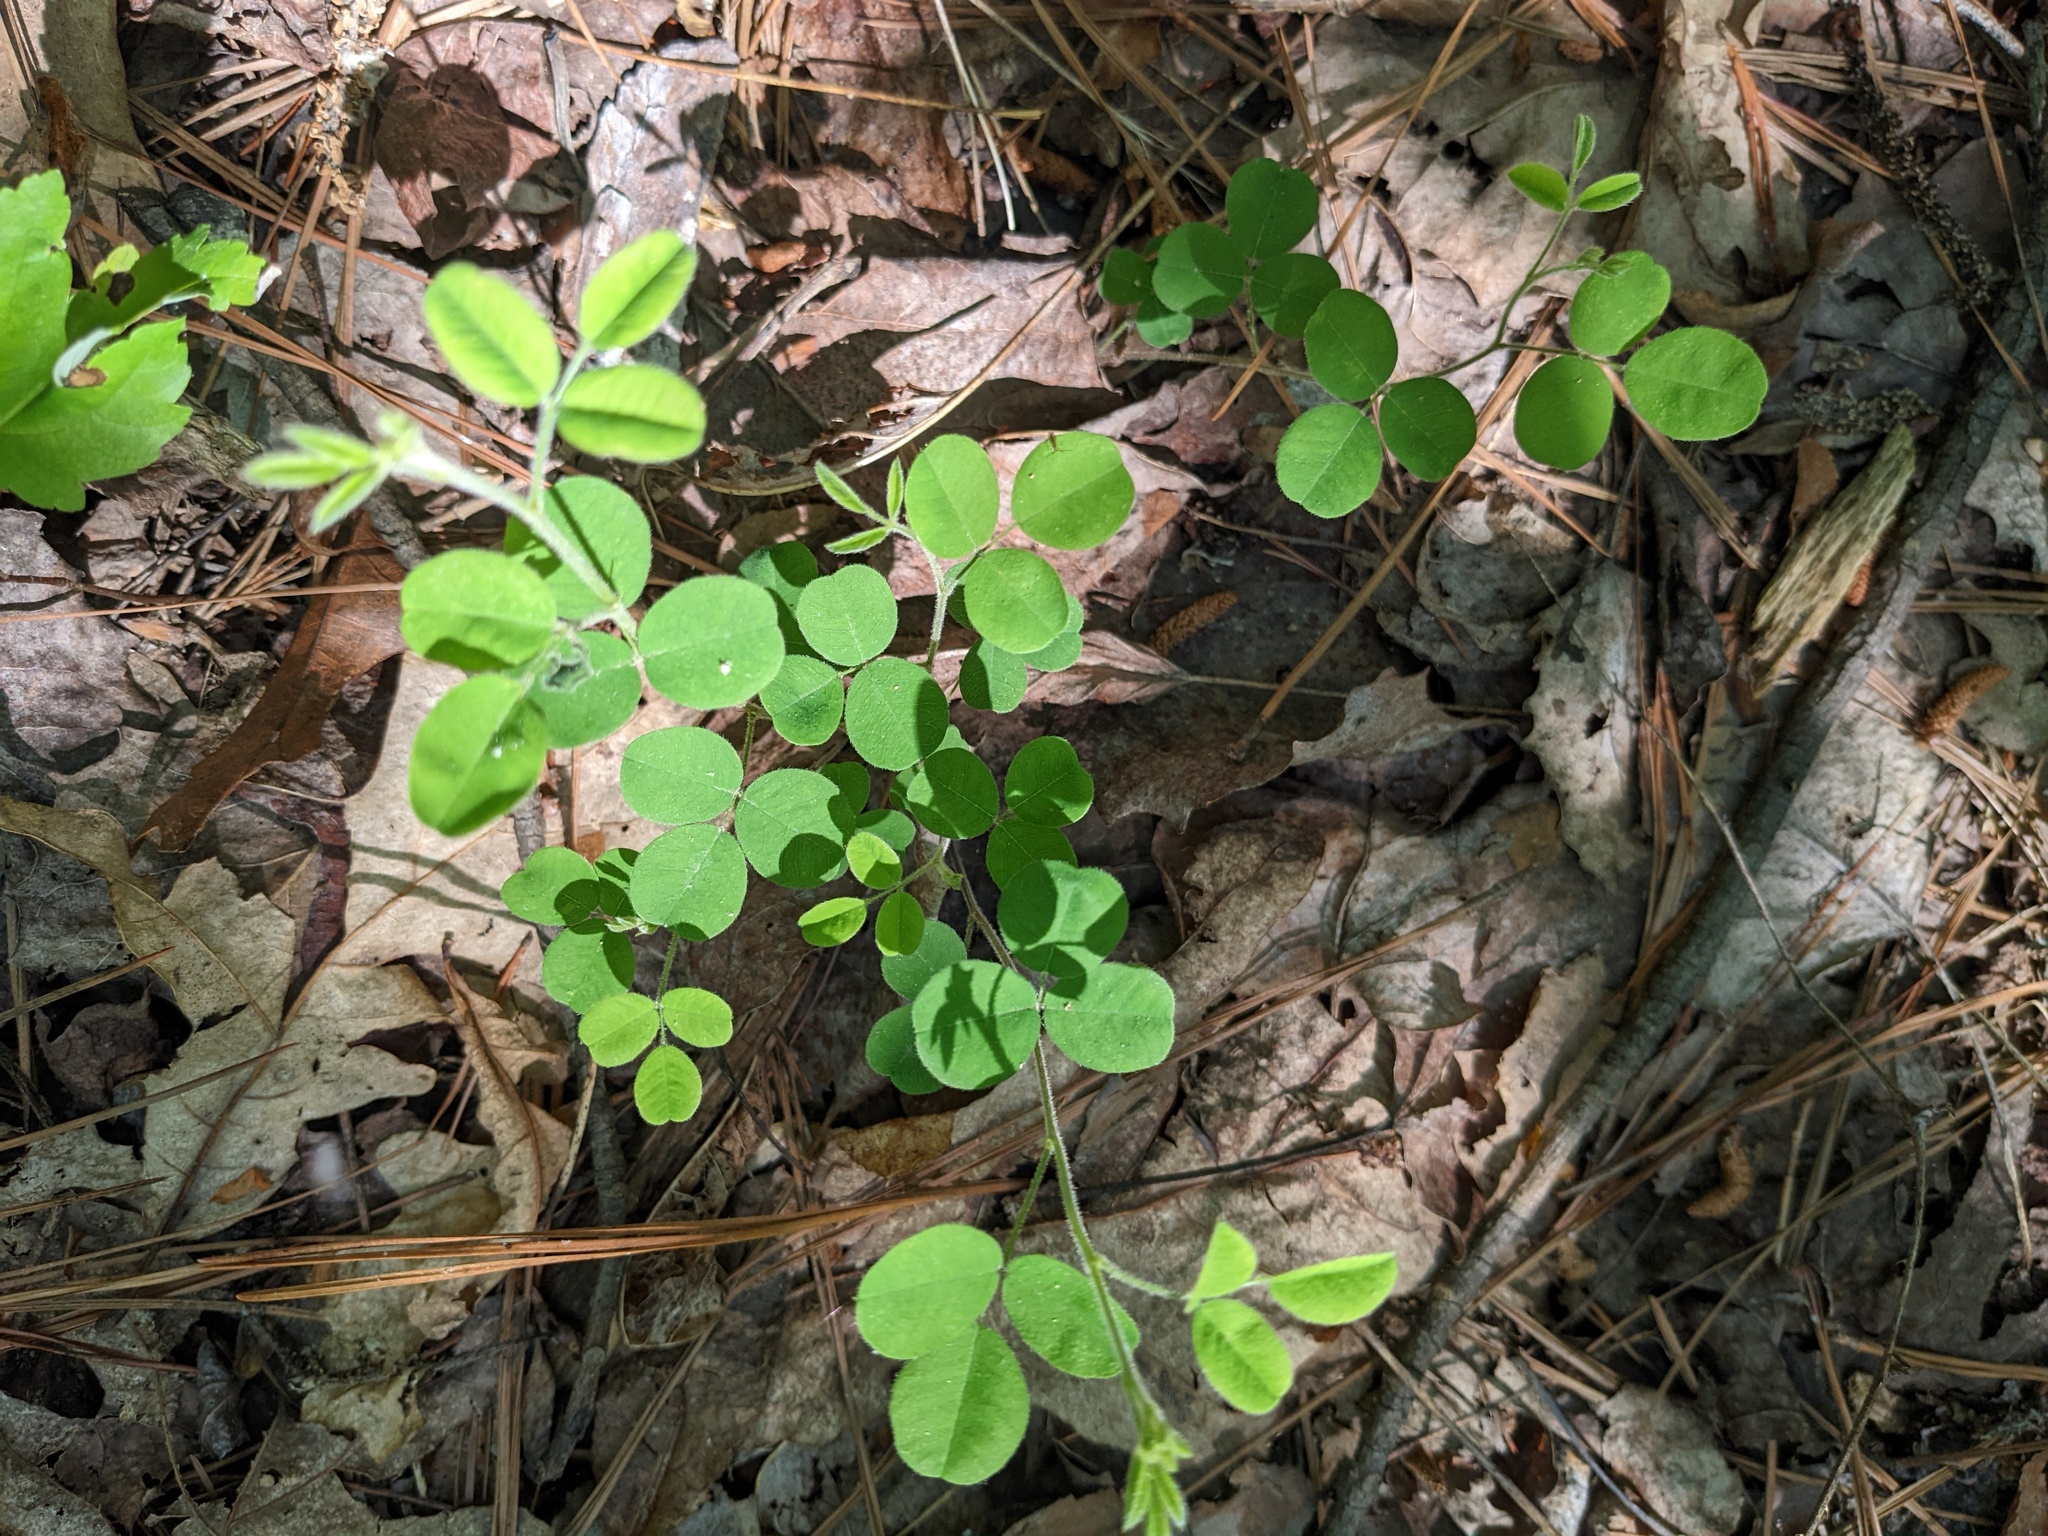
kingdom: Plantae
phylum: Tracheophyta
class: Magnoliopsida
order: Fabales
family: Fabaceae
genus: Lespedeza
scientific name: Lespedeza procumbens
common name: Downy trailing bush-clover
